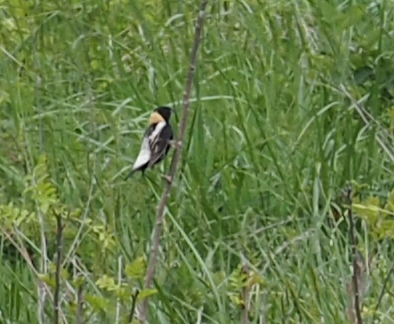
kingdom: Animalia
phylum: Chordata
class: Aves
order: Passeriformes
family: Icteridae
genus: Dolichonyx
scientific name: Dolichonyx oryzivorus
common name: Bobolink
